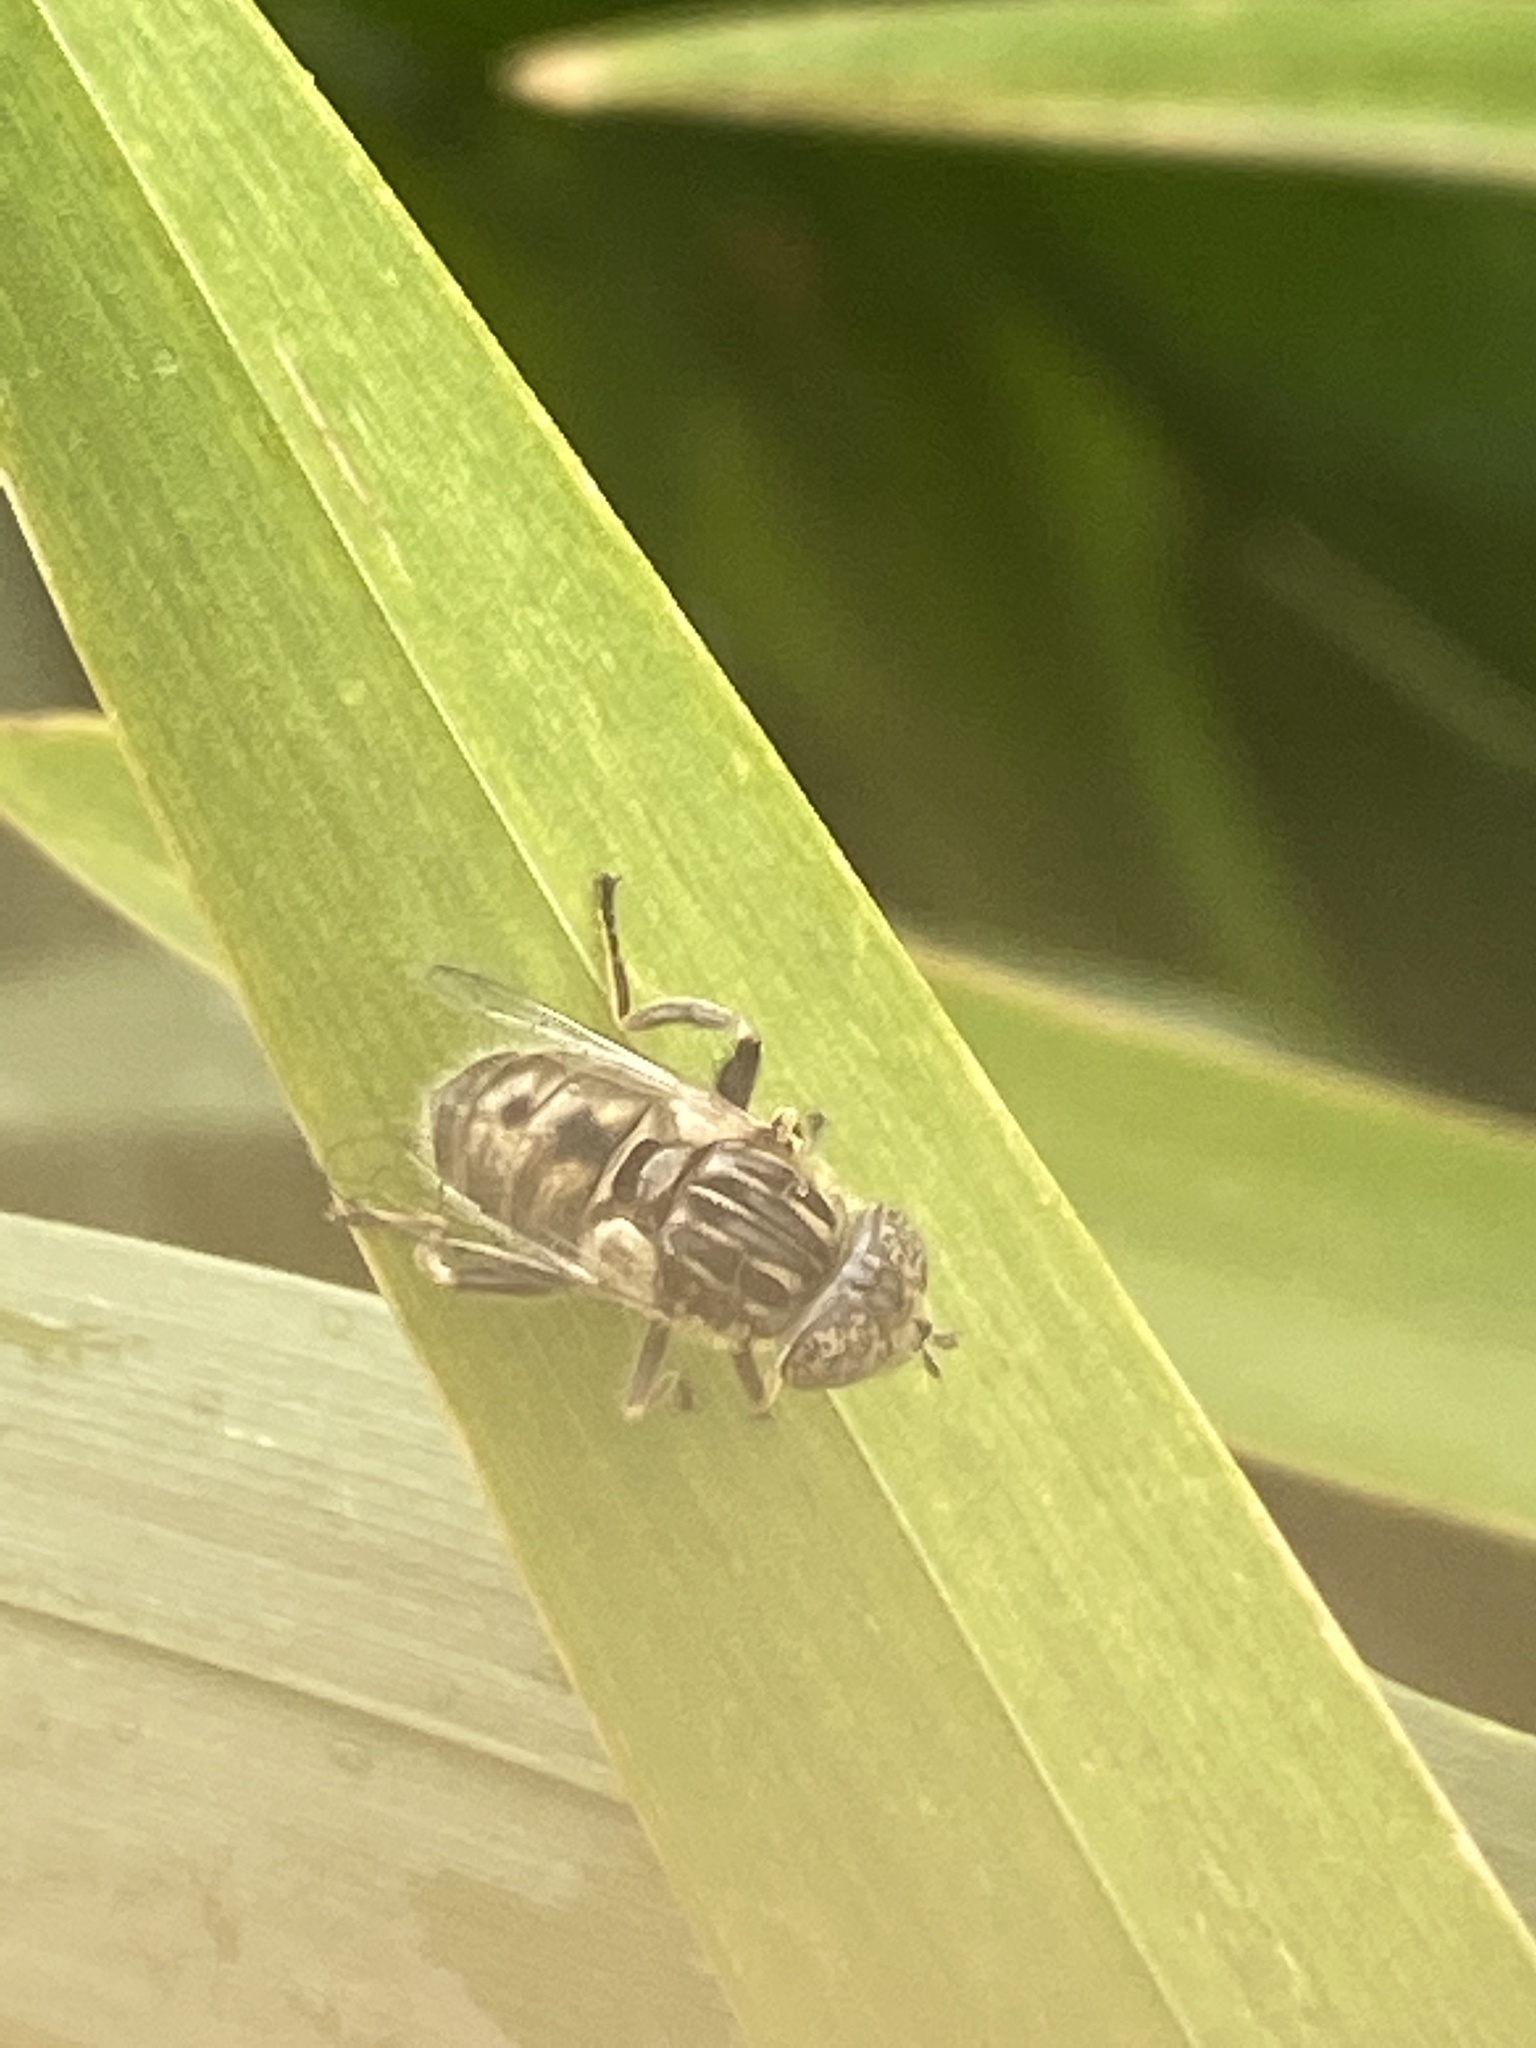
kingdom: Animalia
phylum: Arthropoda
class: Insecta
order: Diptera
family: Syrphidae
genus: Eristalinus
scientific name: Eristalinus sepulchralis
